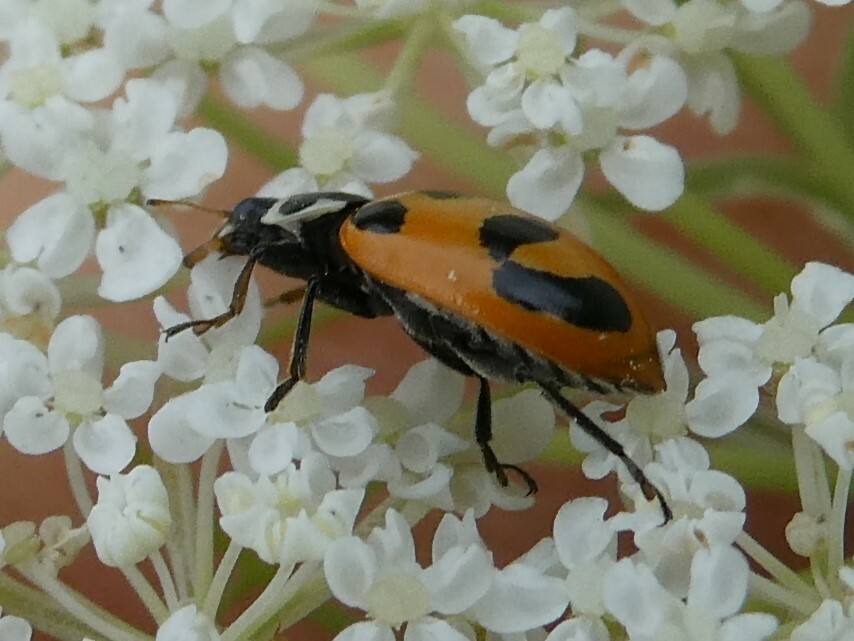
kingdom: Animalia
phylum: Arthropoda
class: Insecta
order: Coleoptera
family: Coccinellidae
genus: Hippodamia
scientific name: Hippodamia parenthesis
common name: Parenthesis lady beetle
